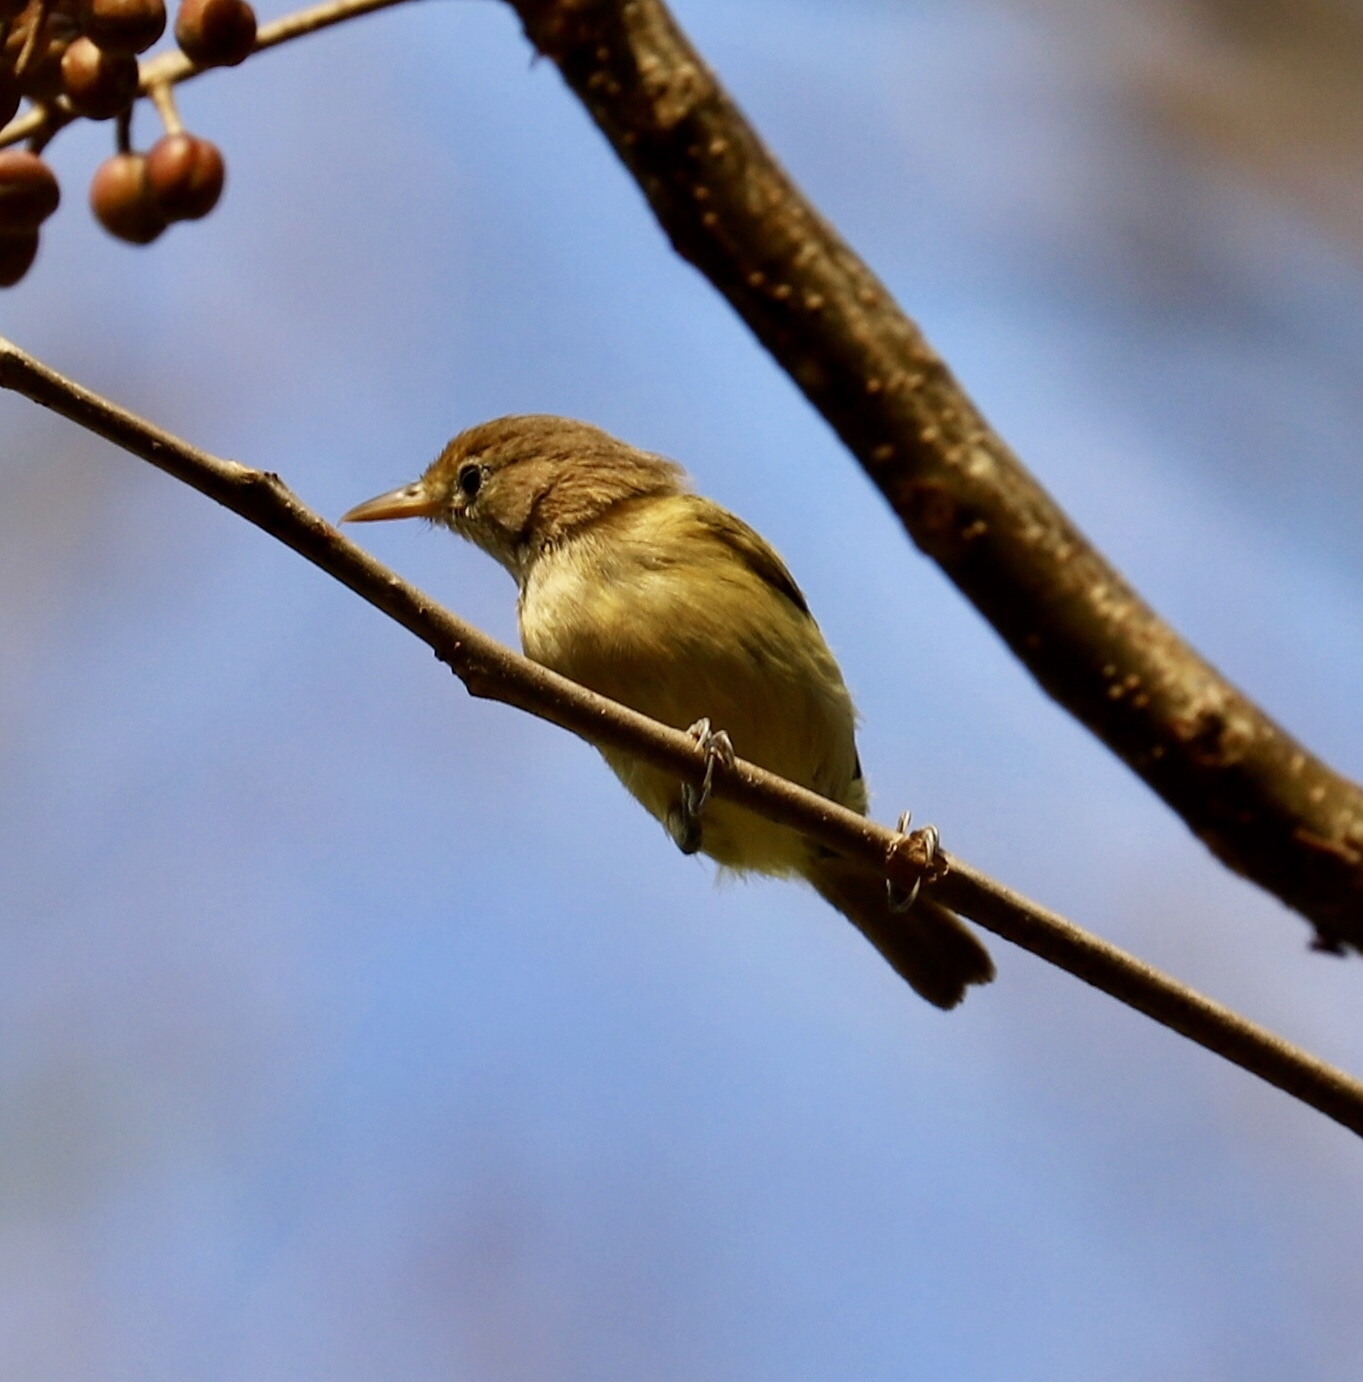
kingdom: Animalia
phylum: Chordata
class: Aves
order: Passeriformes
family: Vireonidae
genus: Hylophilus
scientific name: Hylophilus aurantiifrons
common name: Golden-fronted greenlet
